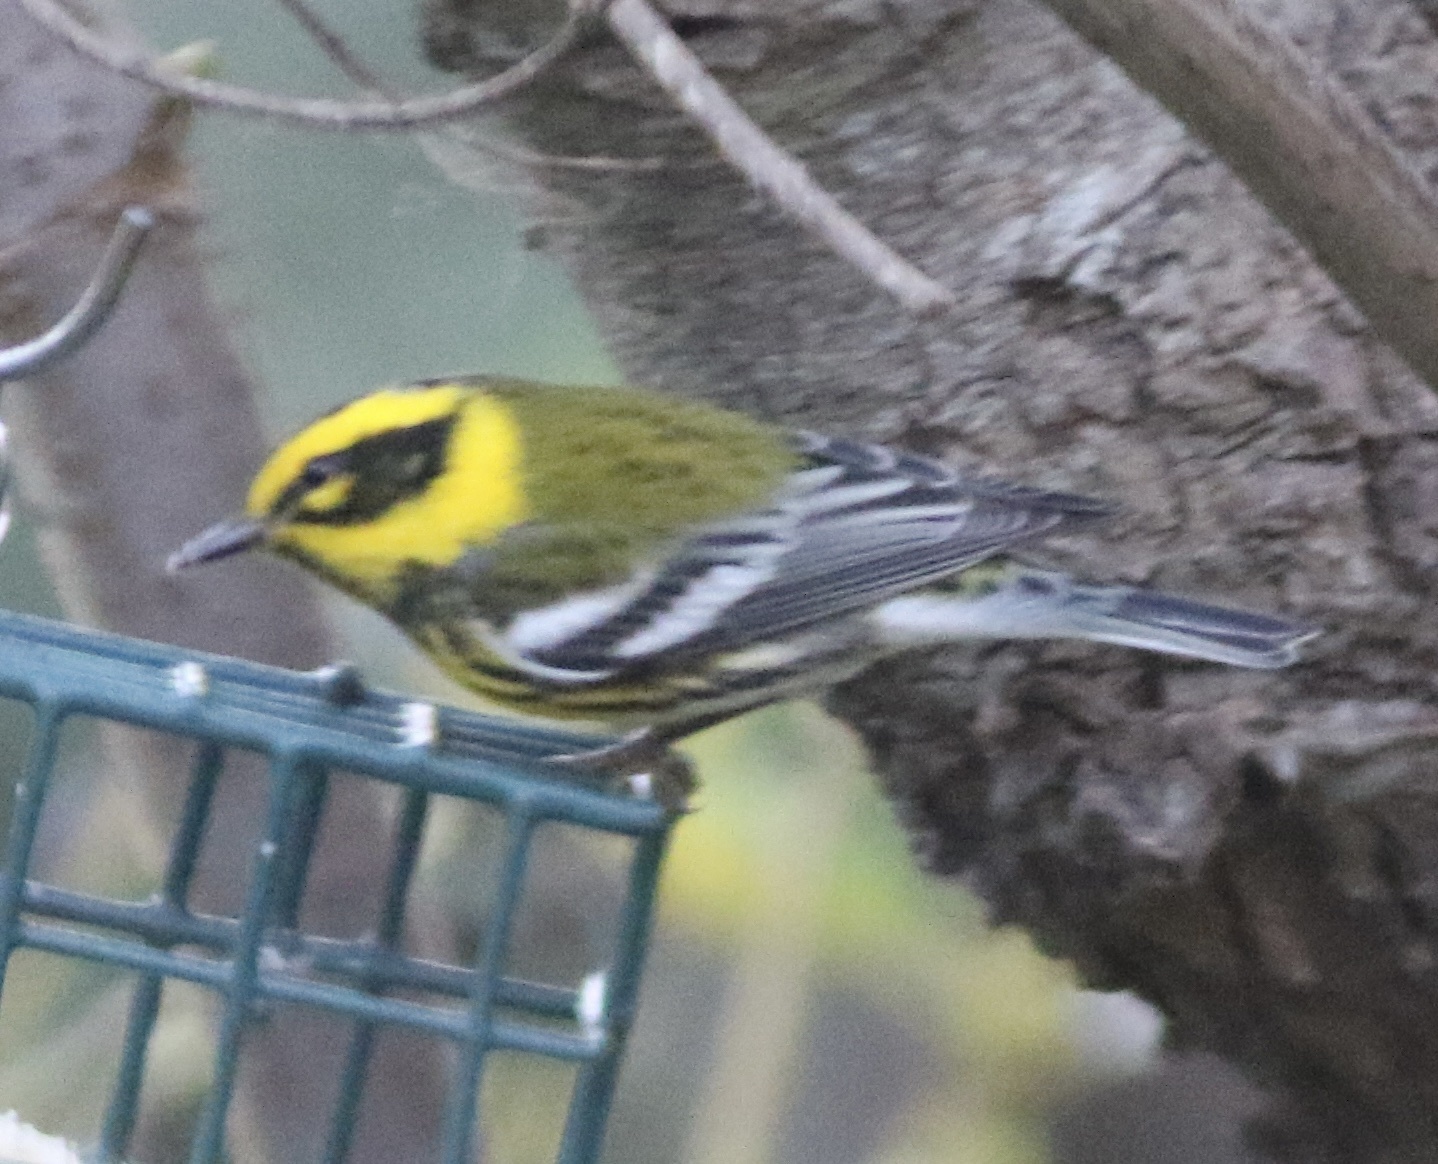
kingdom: Animalia
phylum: Chordata
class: Aves
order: Passeriformes
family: Parulidae
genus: Setophaga
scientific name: Setophaga townsendi
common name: Townsend's warbler
